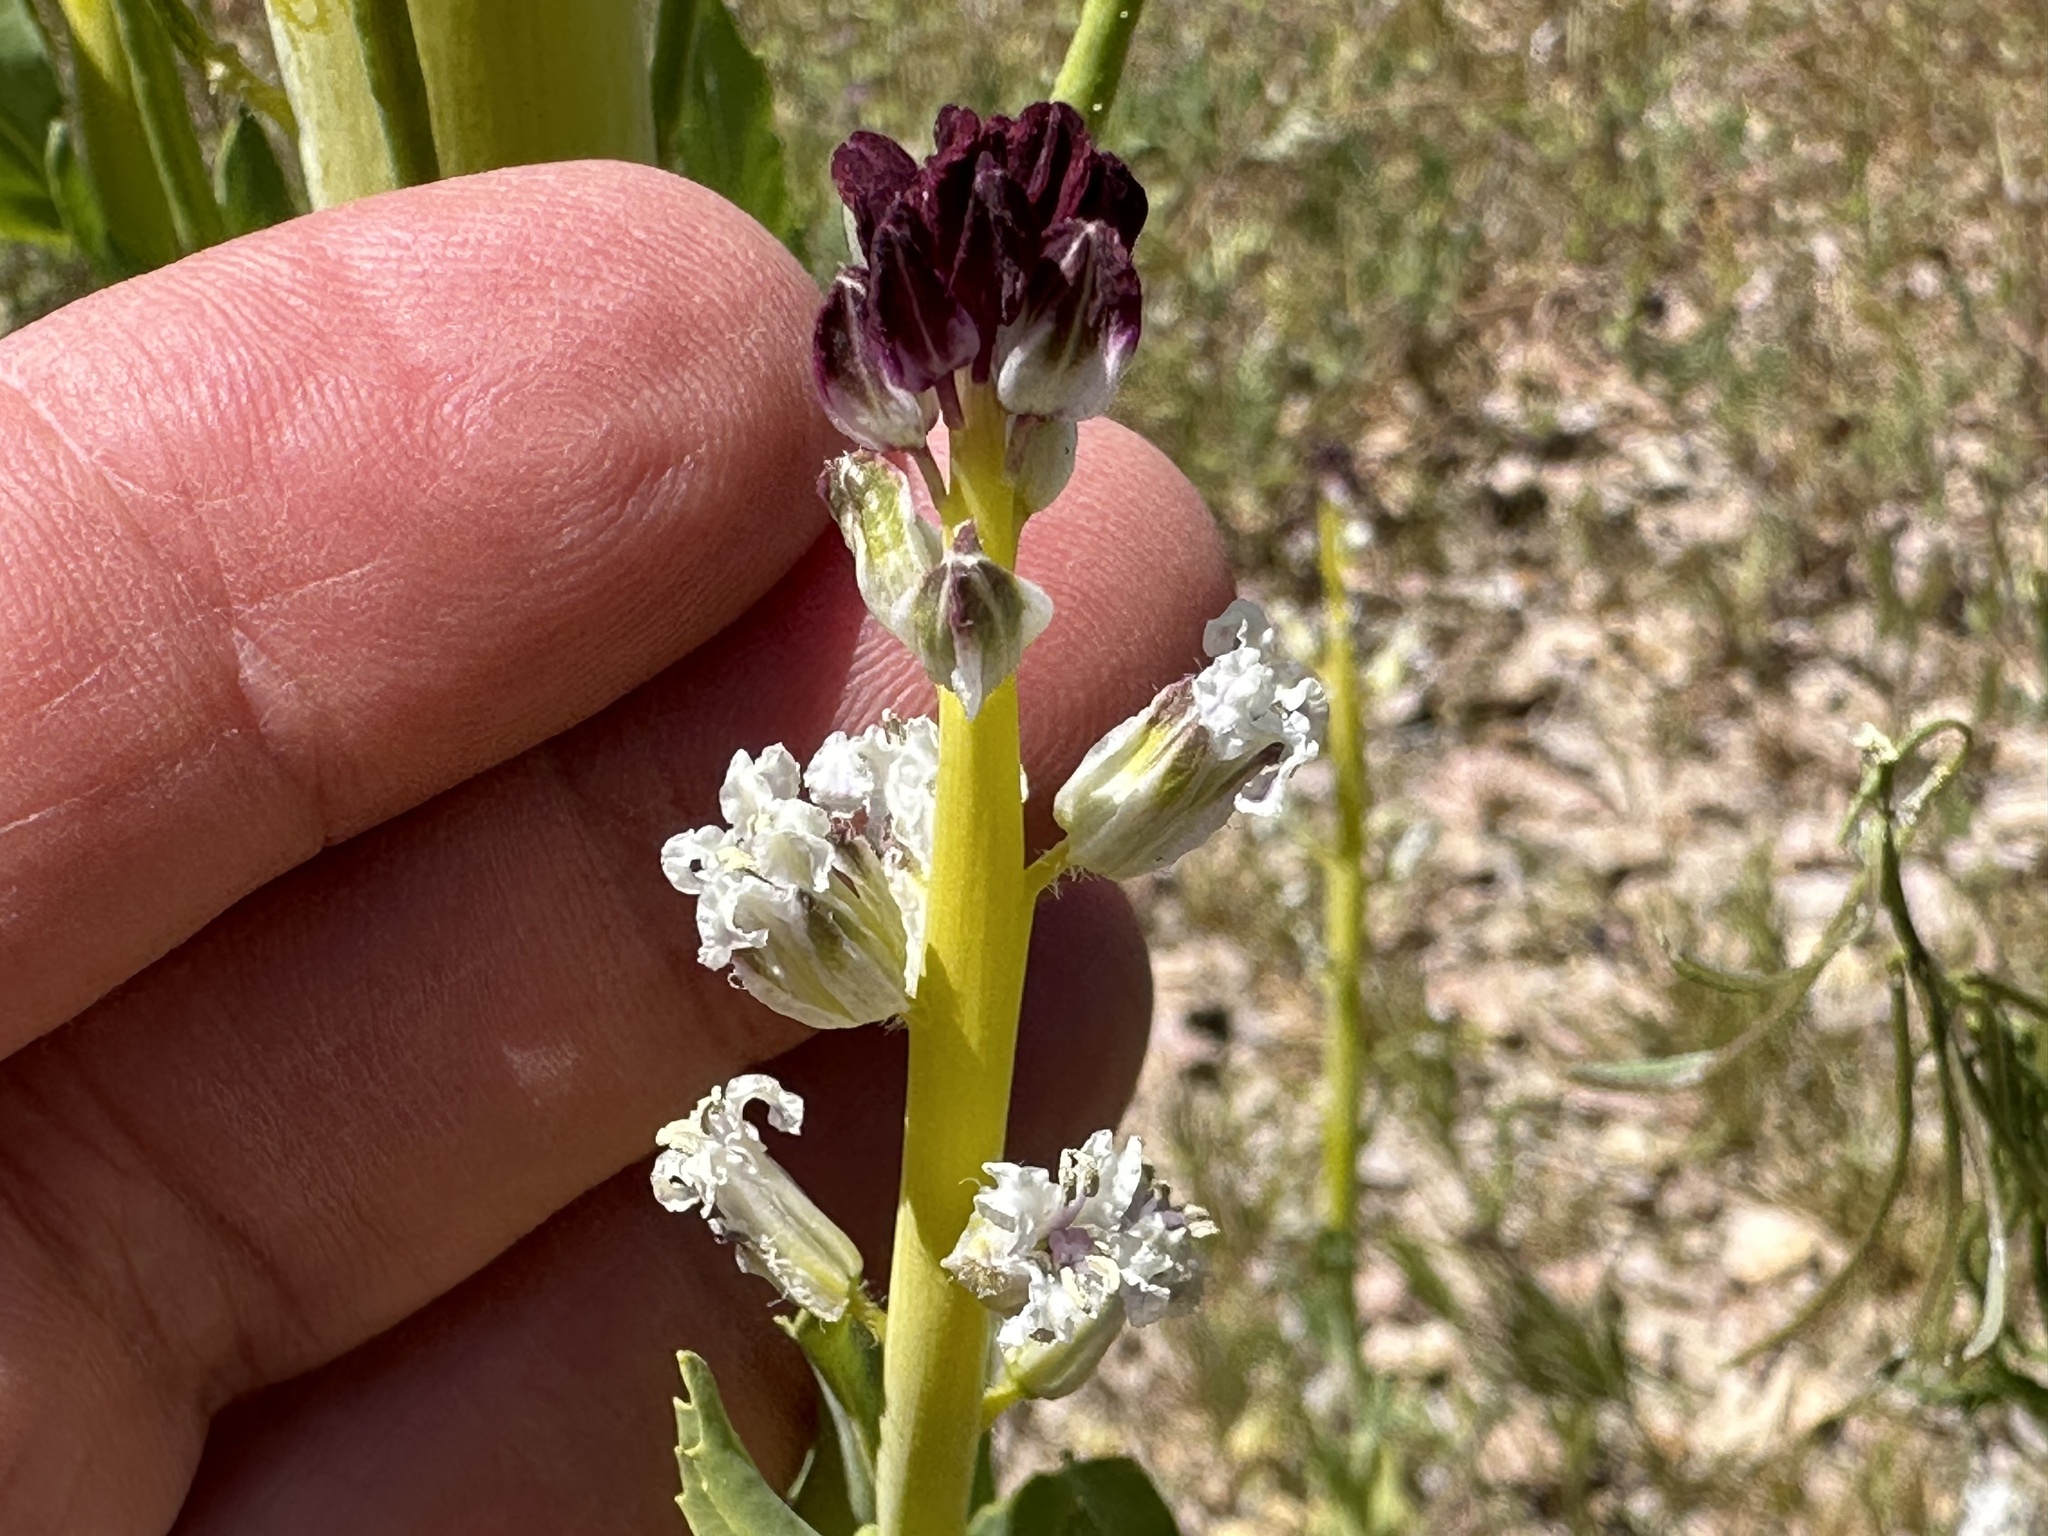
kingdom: Plantae
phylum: Tracheophyta
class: Magnoliopsida
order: Brassicales
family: Brassicaceae
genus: Streptanthus
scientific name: Streptanthus inflatus
